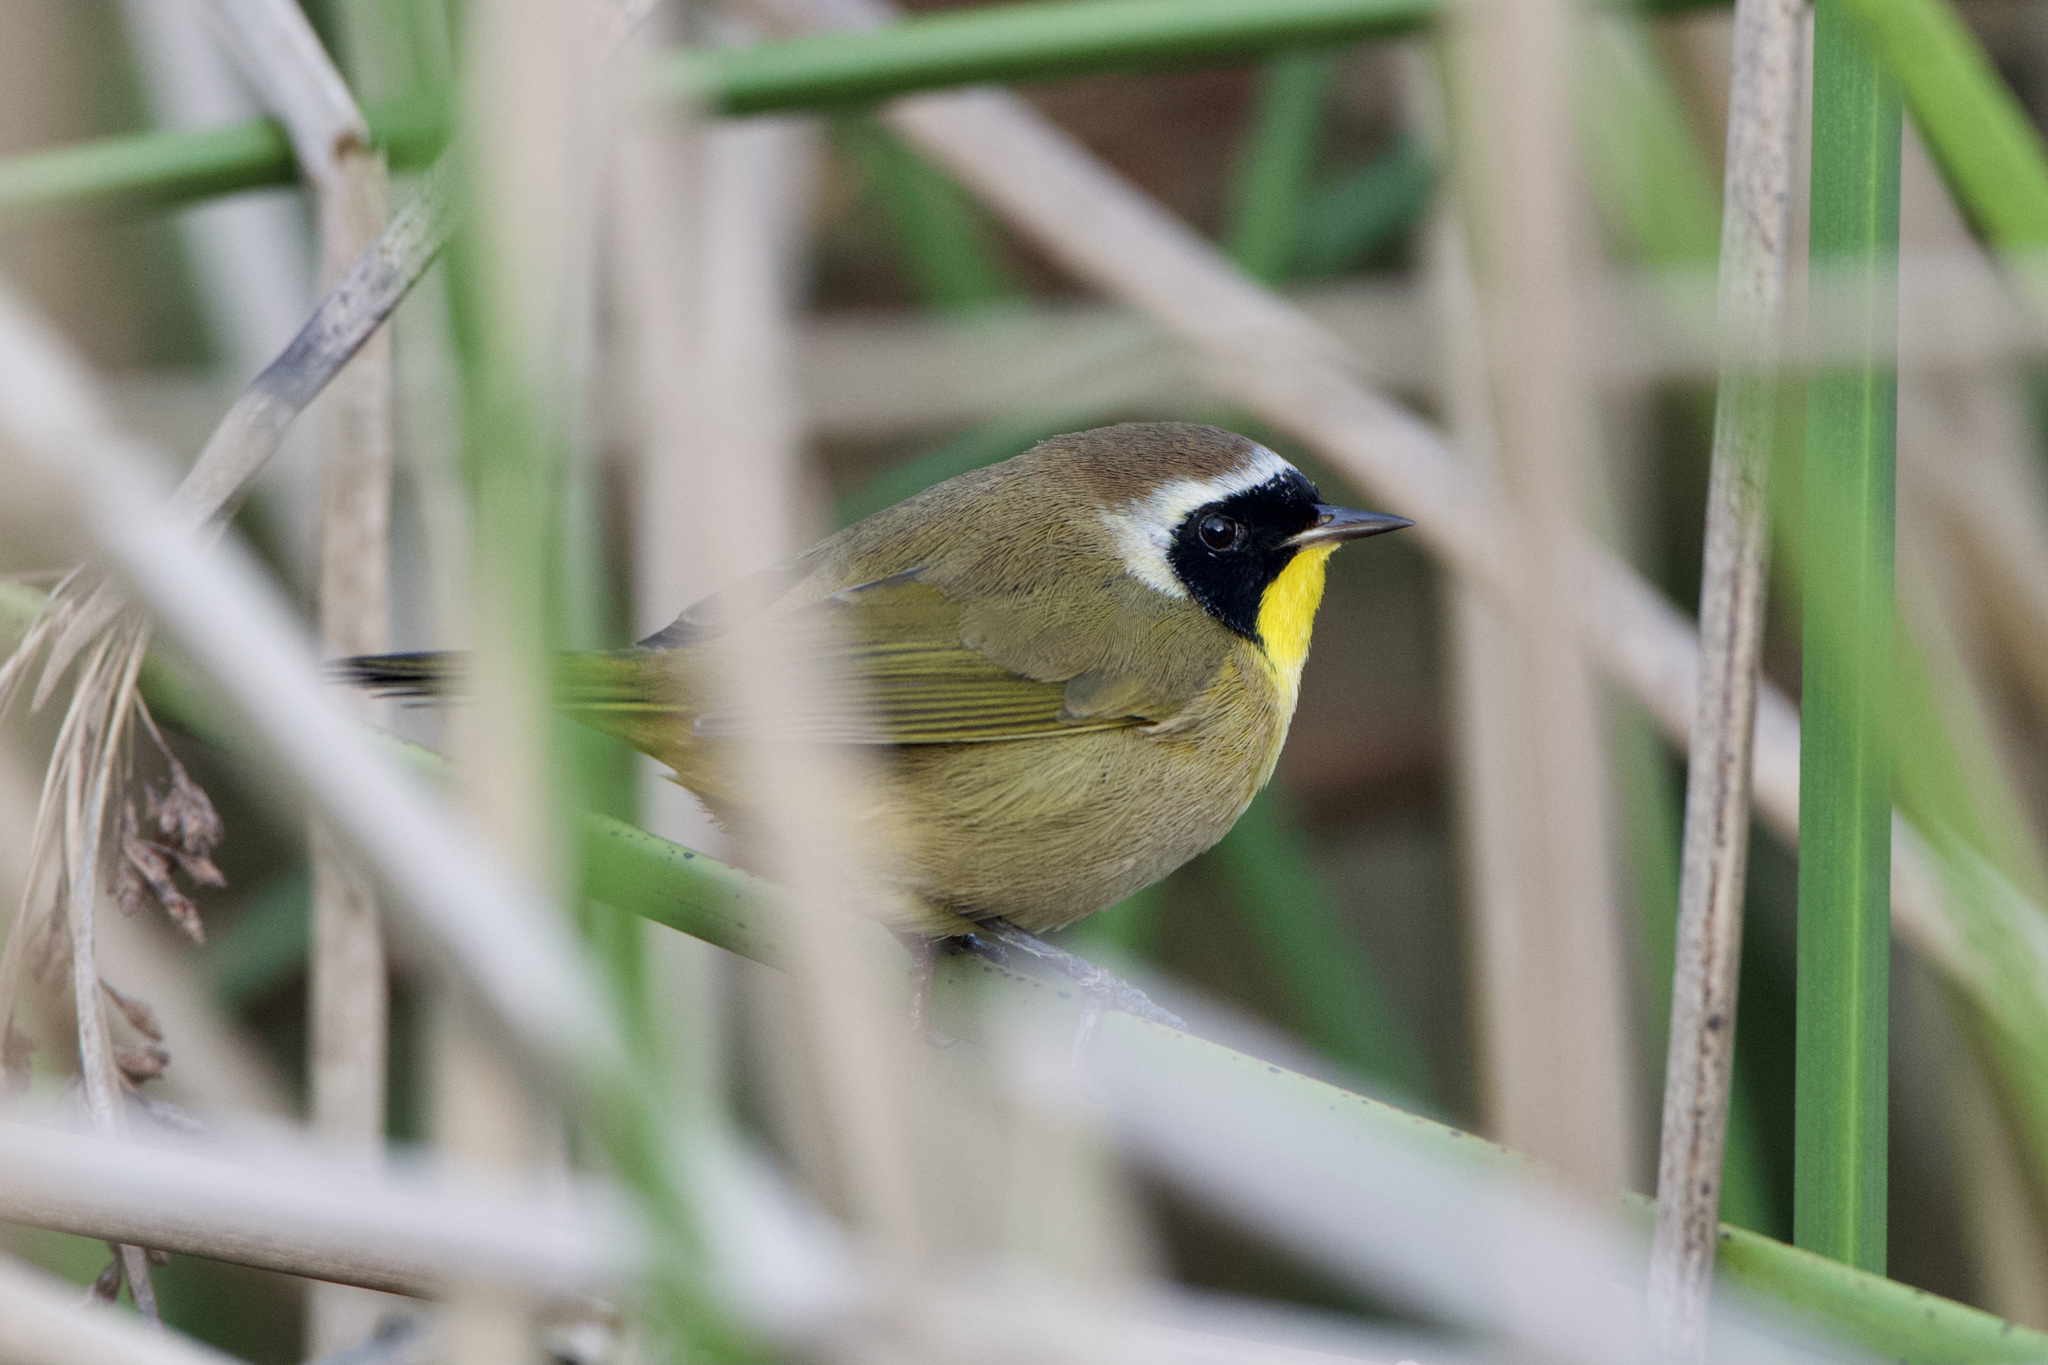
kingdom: Animalia
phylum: Chordata
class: Aves
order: Passeriformes
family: Parulidae
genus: Geothlypis
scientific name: Geothlypis trichas
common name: Common yellowthroat
